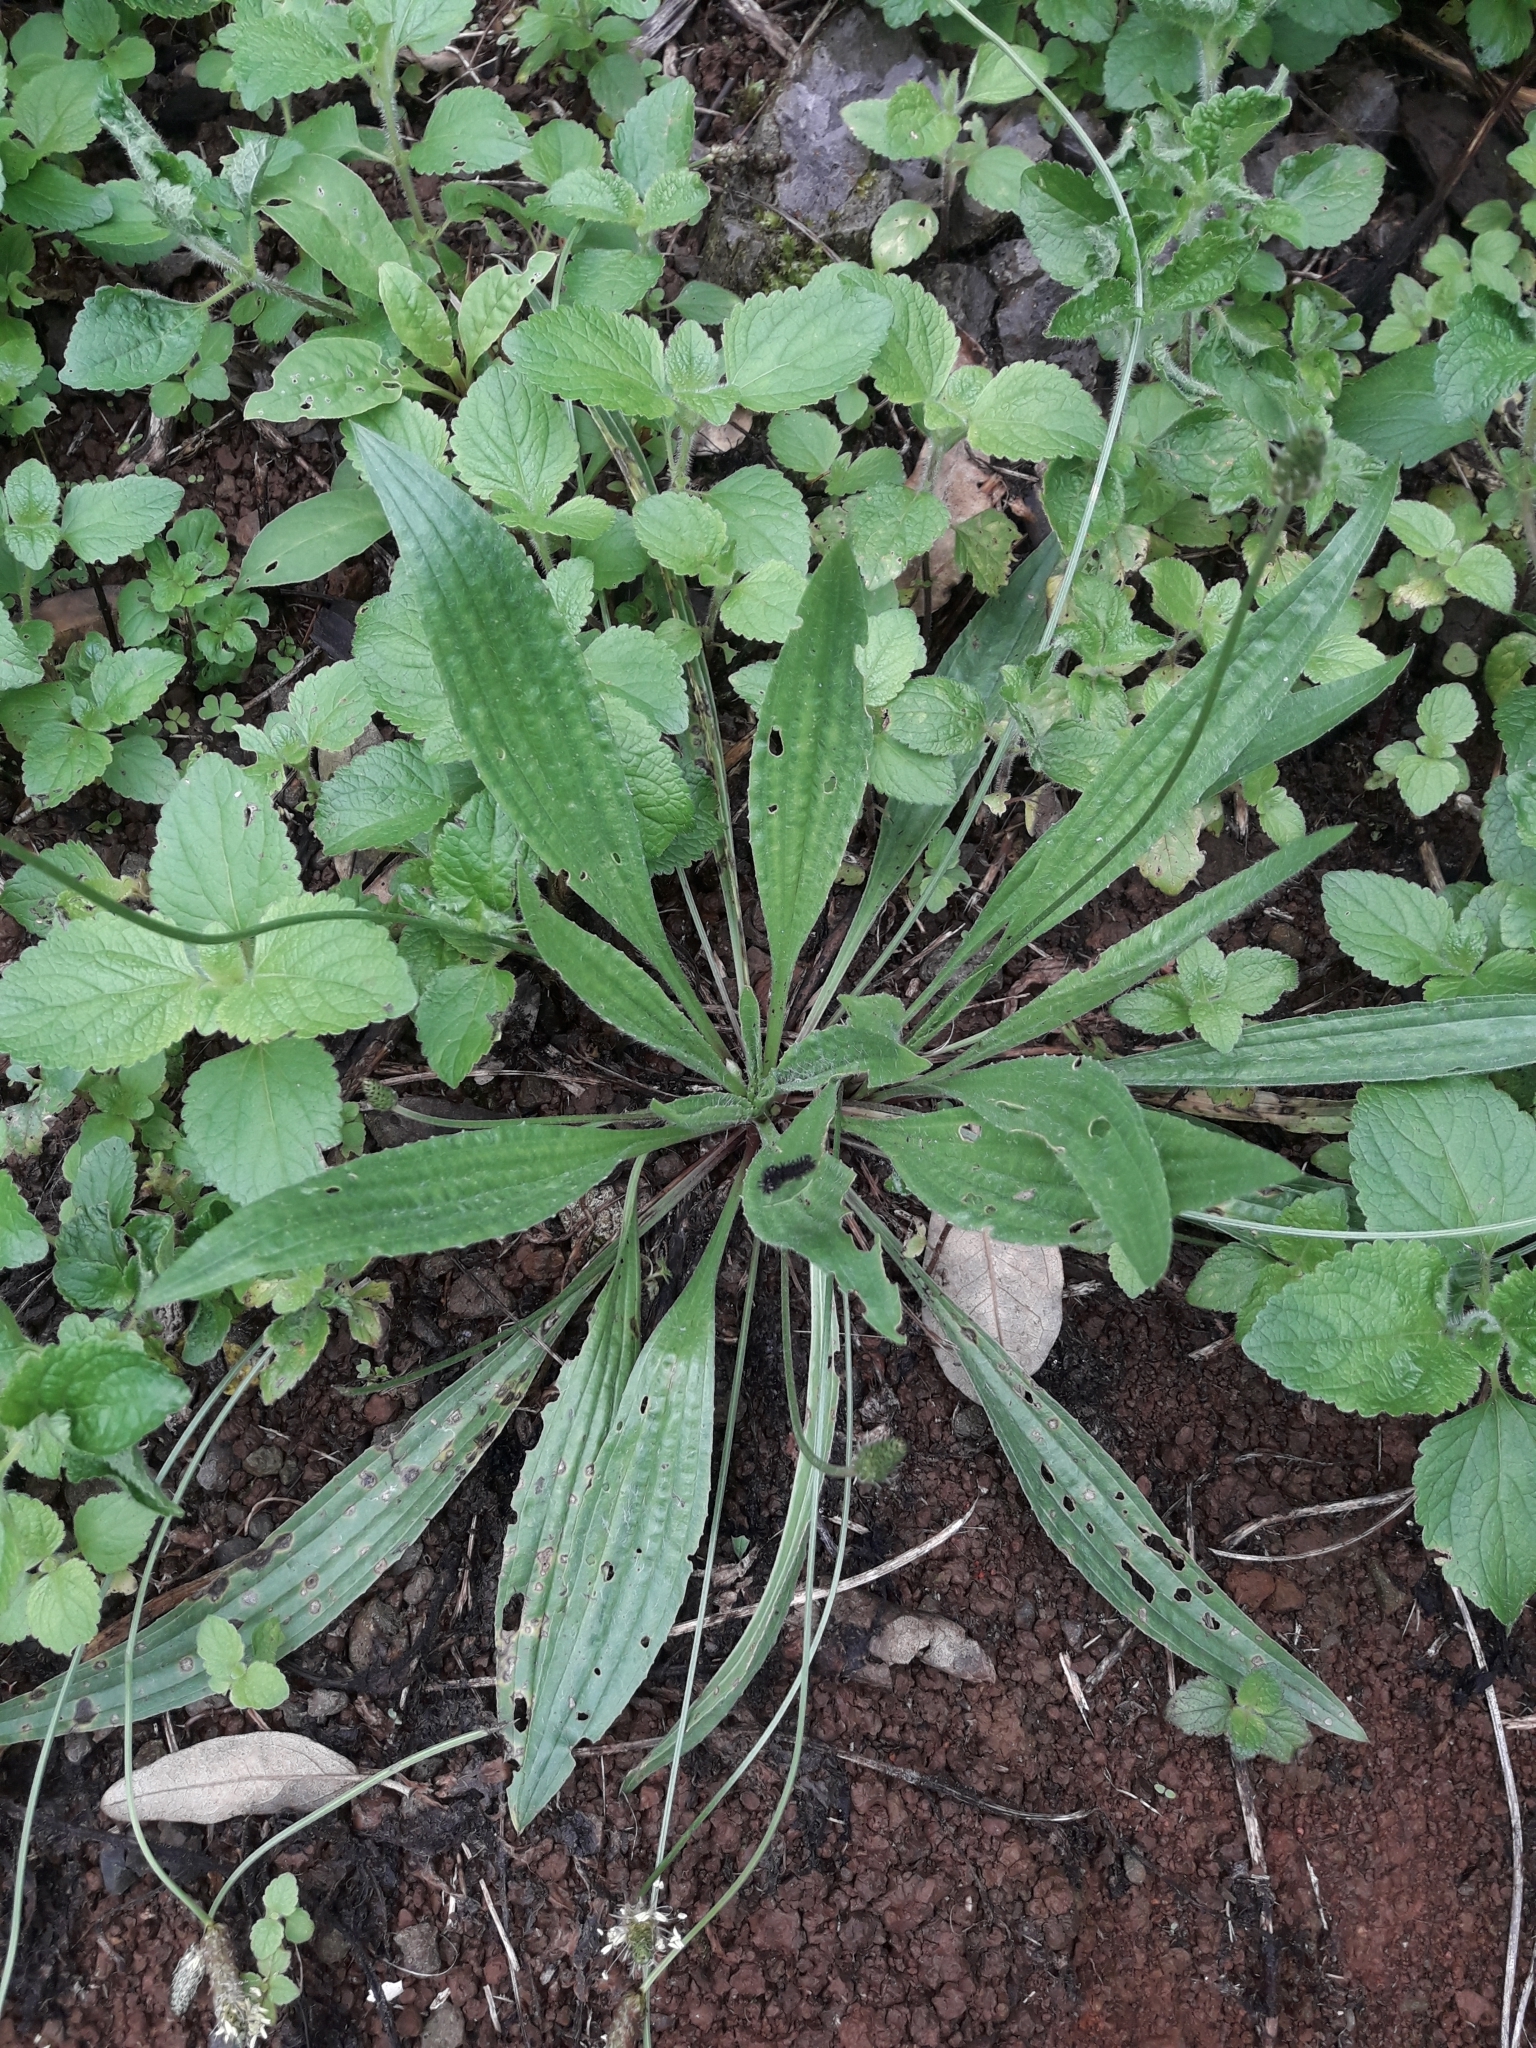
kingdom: Plantae
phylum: Tracheophyta
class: Magnoliopsida
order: Lamiales
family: Plantaginaceae
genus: Plantago
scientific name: Plantago lanceolata
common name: Ribwort plantain
